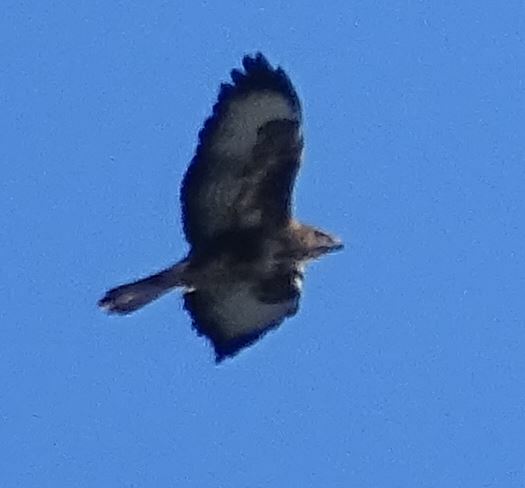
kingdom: Animalia
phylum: Chordata
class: Aves
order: Accipitriformes
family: Accipitridae
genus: Buteo
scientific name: Buteo buteo
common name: Common buzzard
